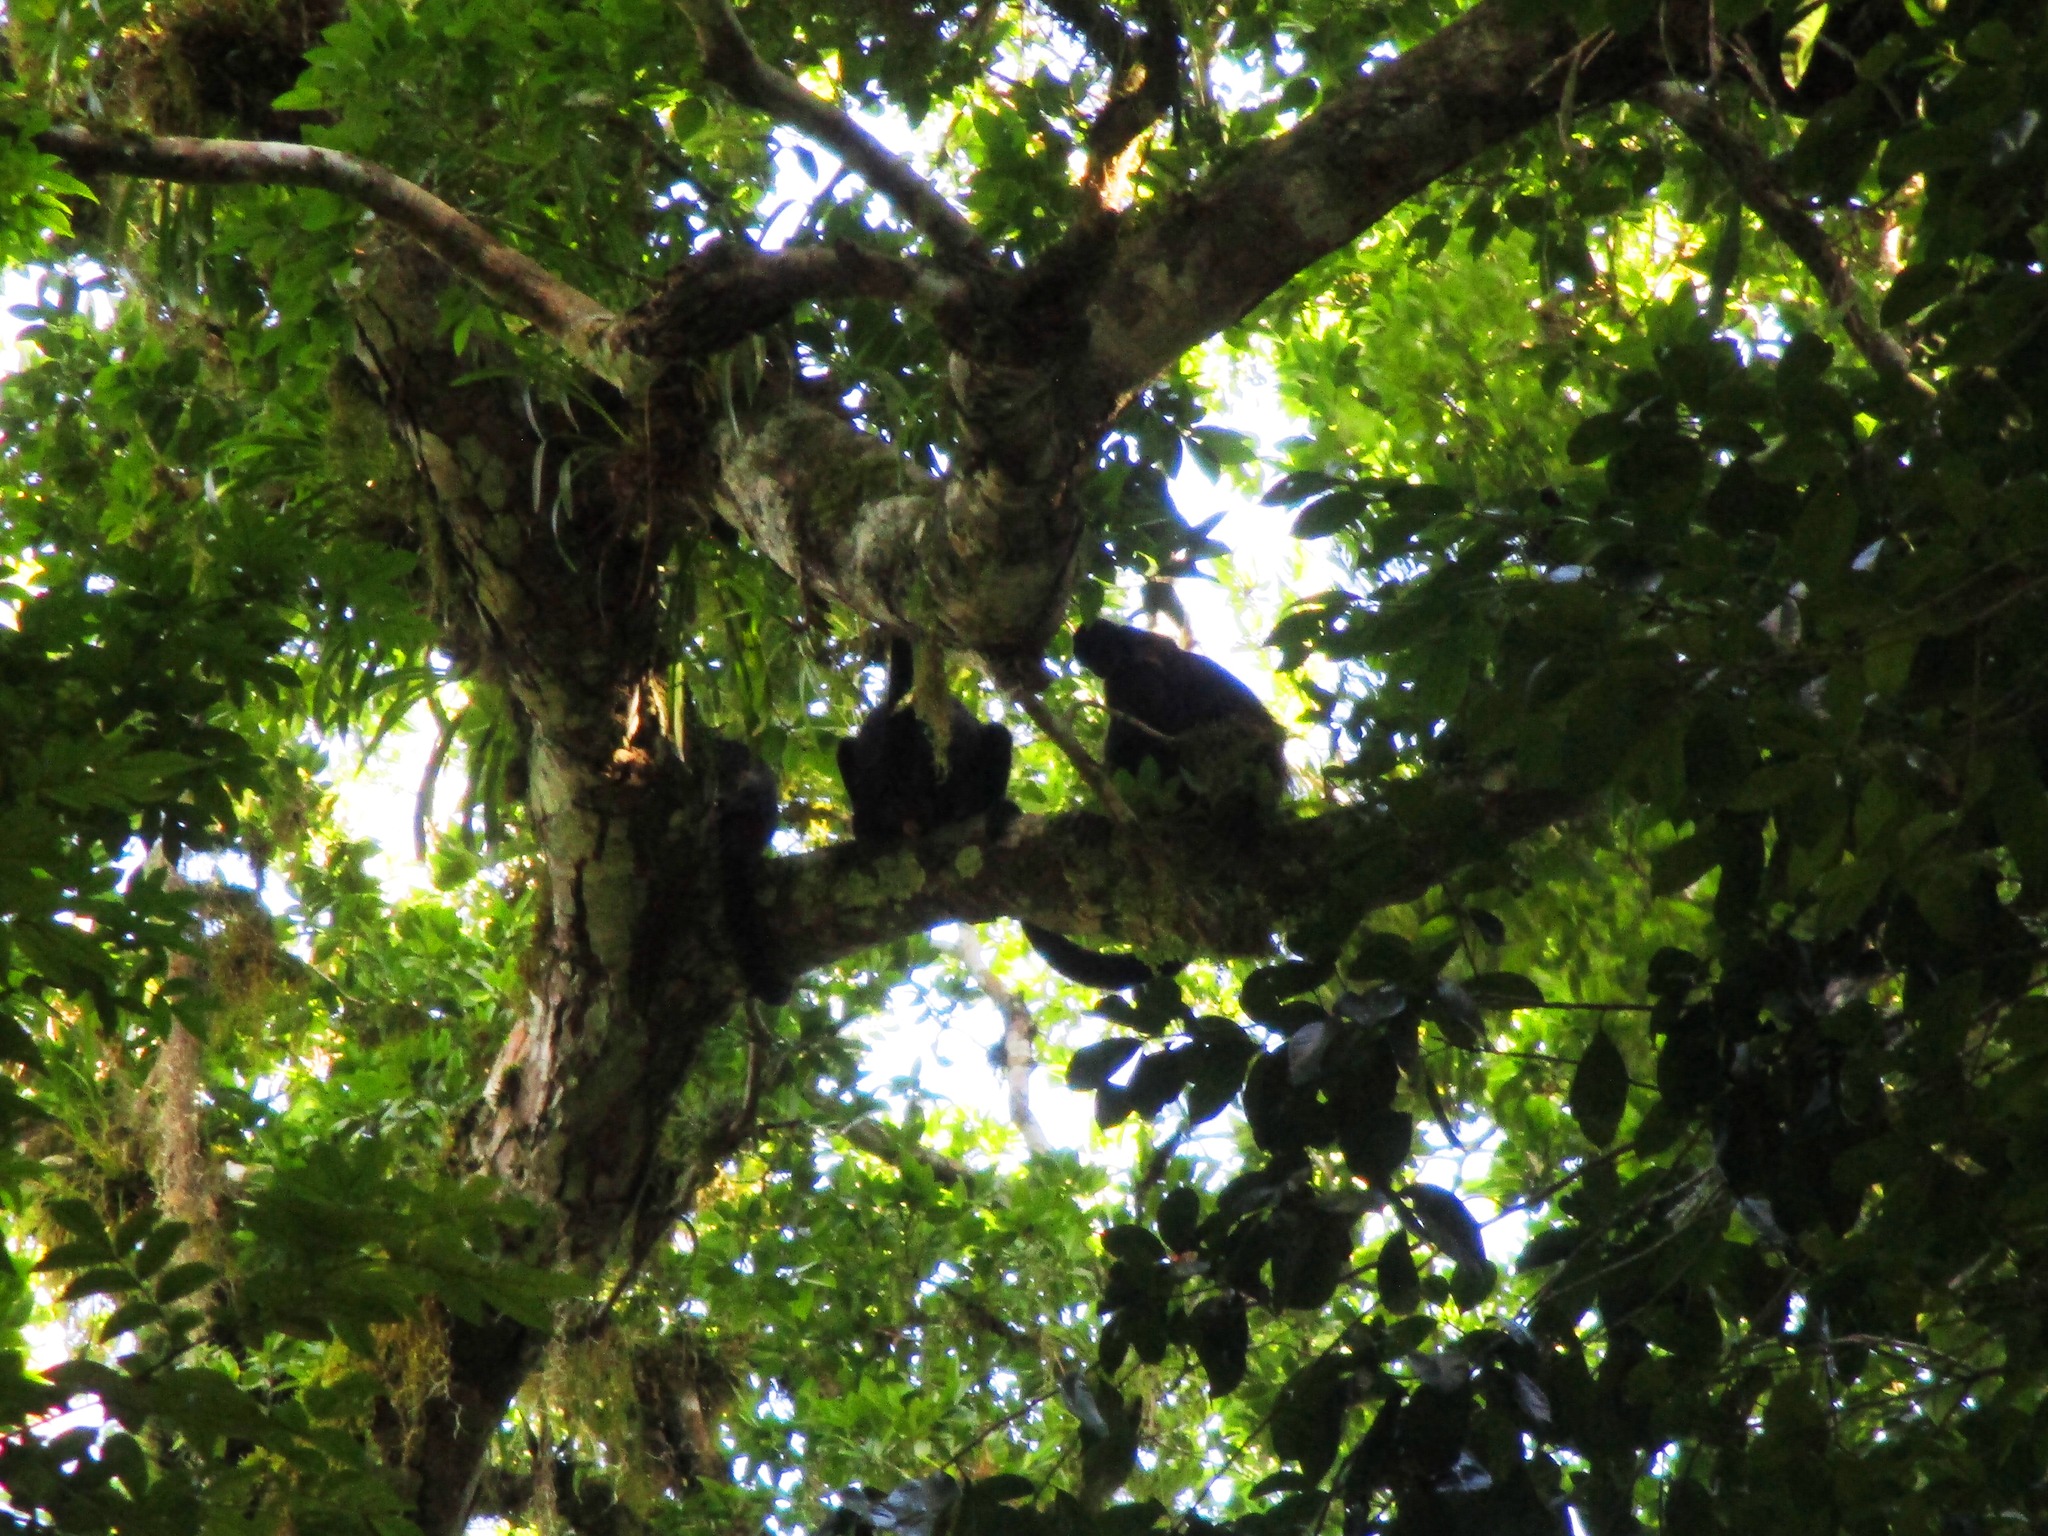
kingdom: Animalia
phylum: Chordata
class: Mammalia
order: Primates
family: Atelidae
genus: Alouatta
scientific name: Alouatta pigra
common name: Guatemalan black howler
